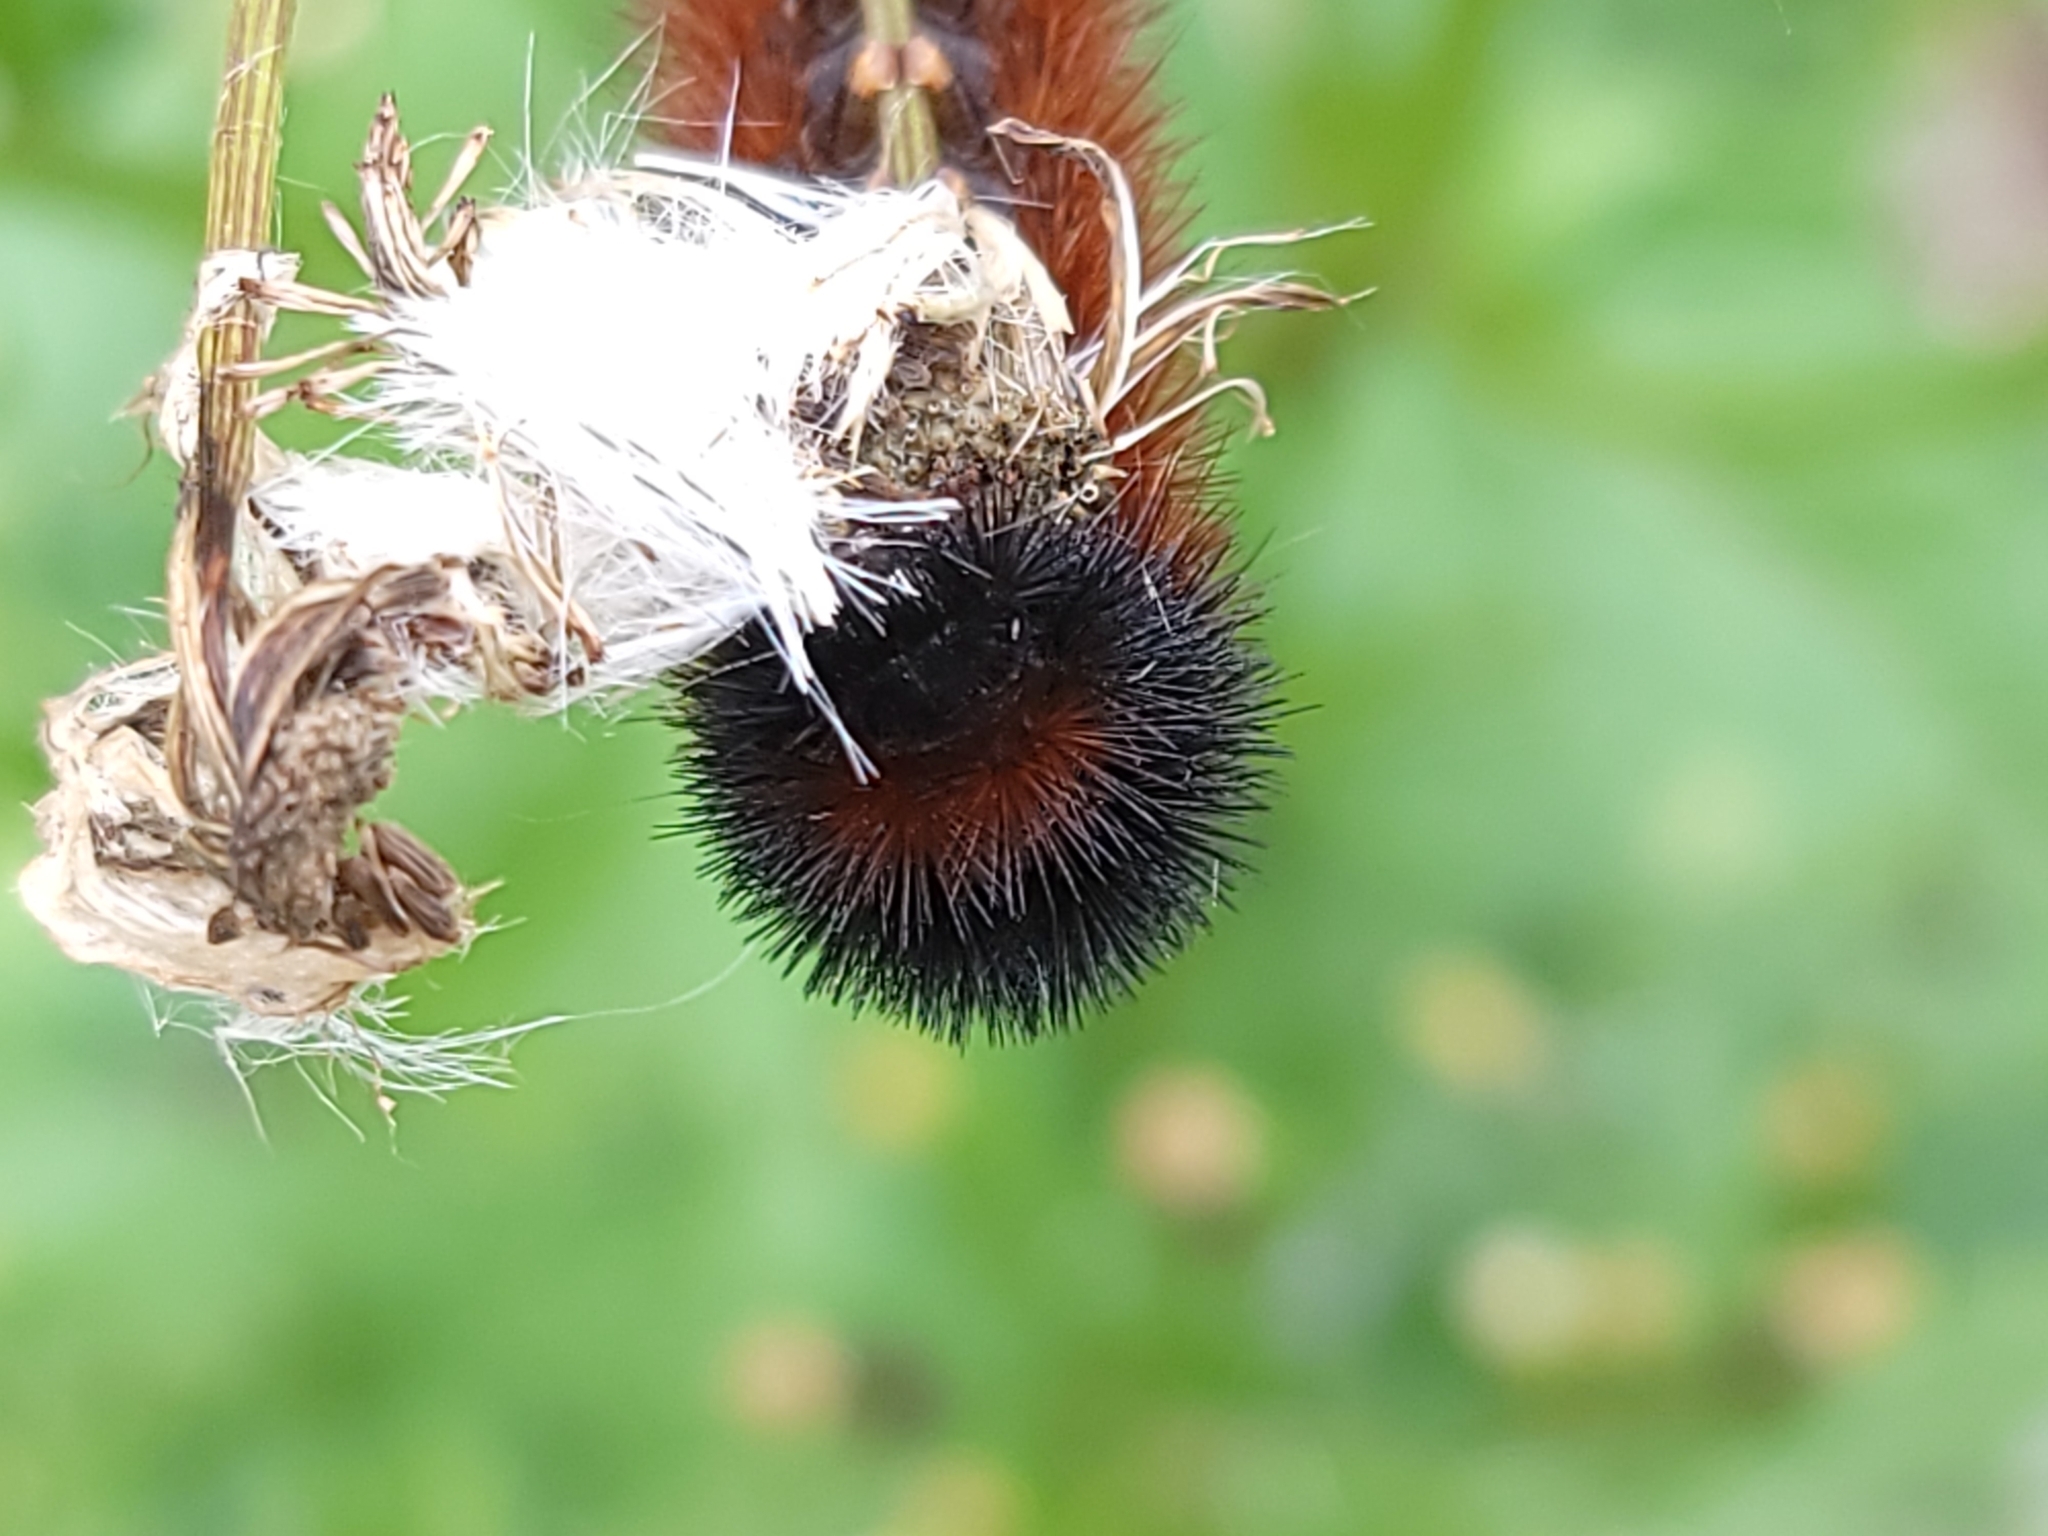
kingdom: Animalia
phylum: Arthropoda
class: Insecta
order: Lepidoptera
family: Erebidae
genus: Pyrrharctia
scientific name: Pyrrharctia isabella
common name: Isabella tiger moth
